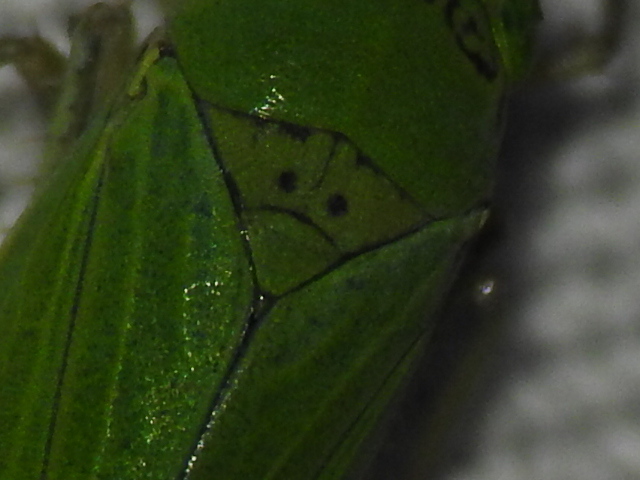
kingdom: Animalia
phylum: Arthropoda
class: Insecta
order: Hemiptera
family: Cicadellidae
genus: Draeculacephala
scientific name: Draeculacephala inscripta
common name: Leafhopper
